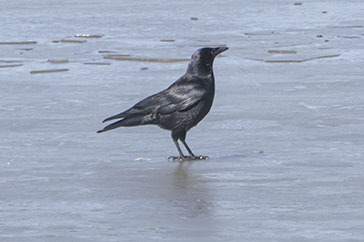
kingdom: Animalia
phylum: Chordata
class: Aves
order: Passeriformes
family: Corvidae
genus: Corvus
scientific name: Corvus corax
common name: Common raven
